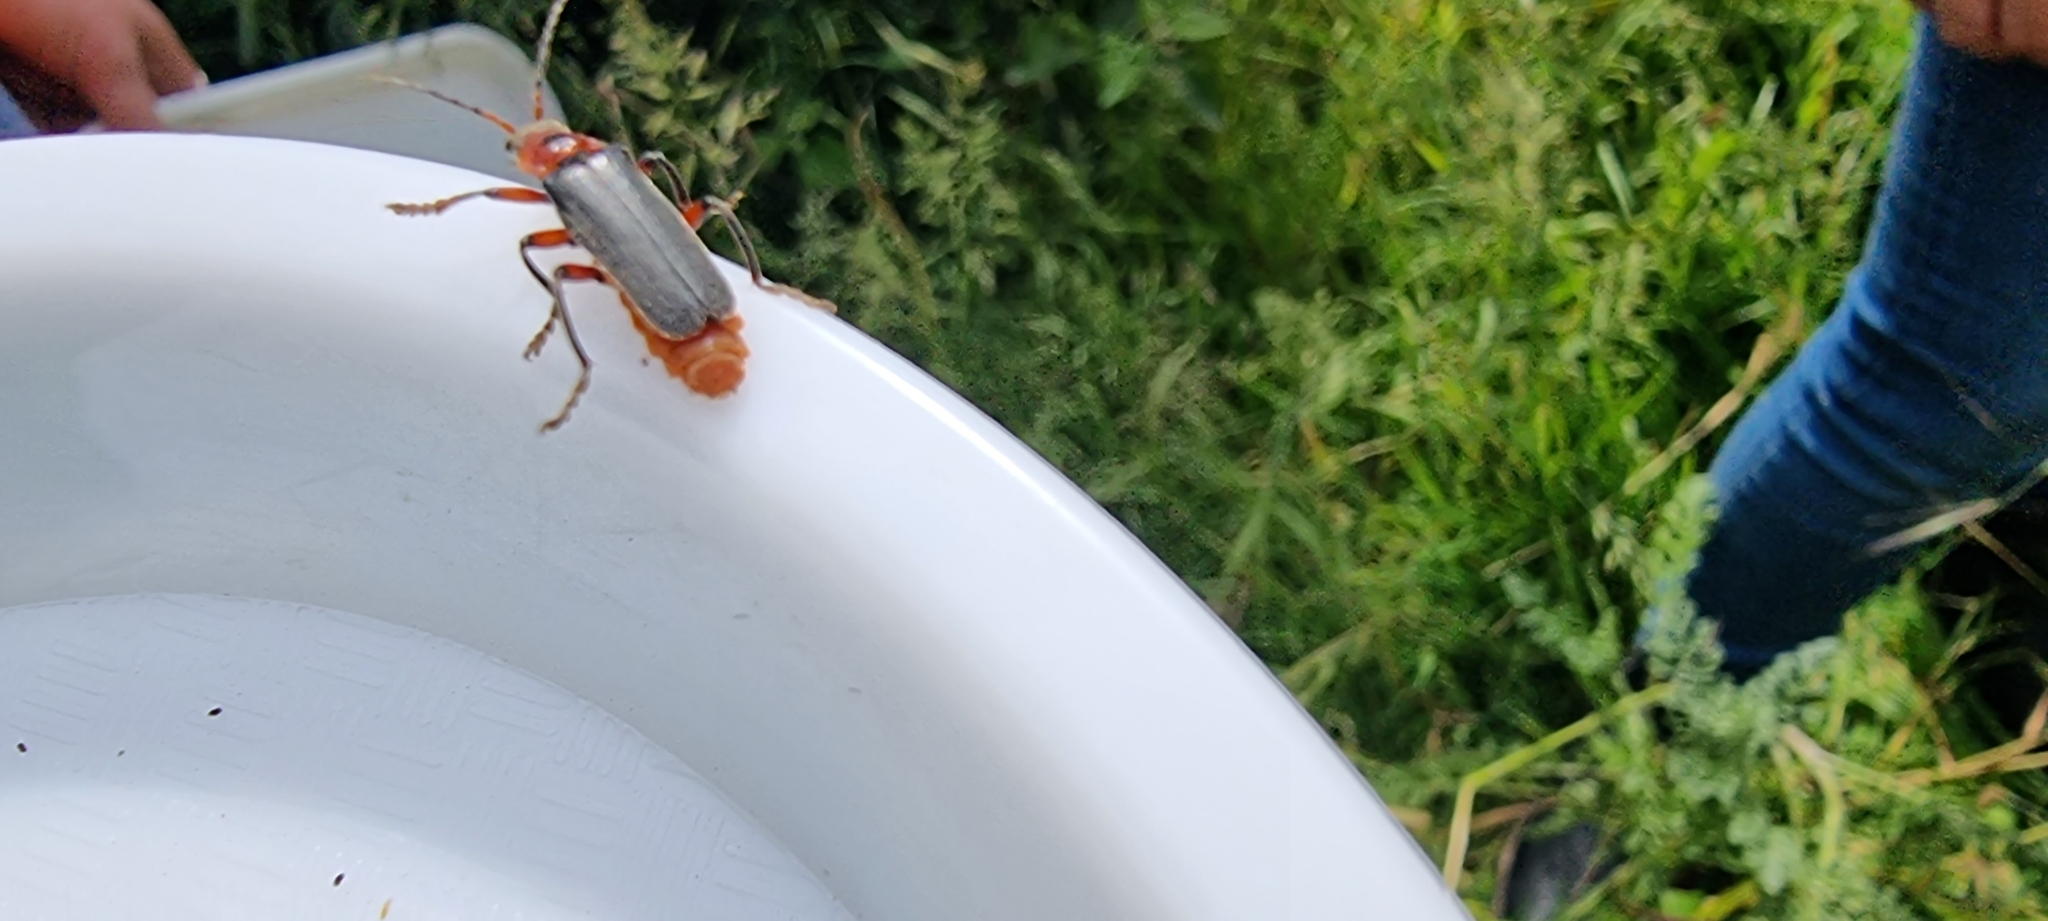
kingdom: Animalia
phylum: Arthropoda
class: Insecta
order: Coleoptera
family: Cantharidae
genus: Cantharis
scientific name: Cantharis rustica
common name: Soldier beetle
